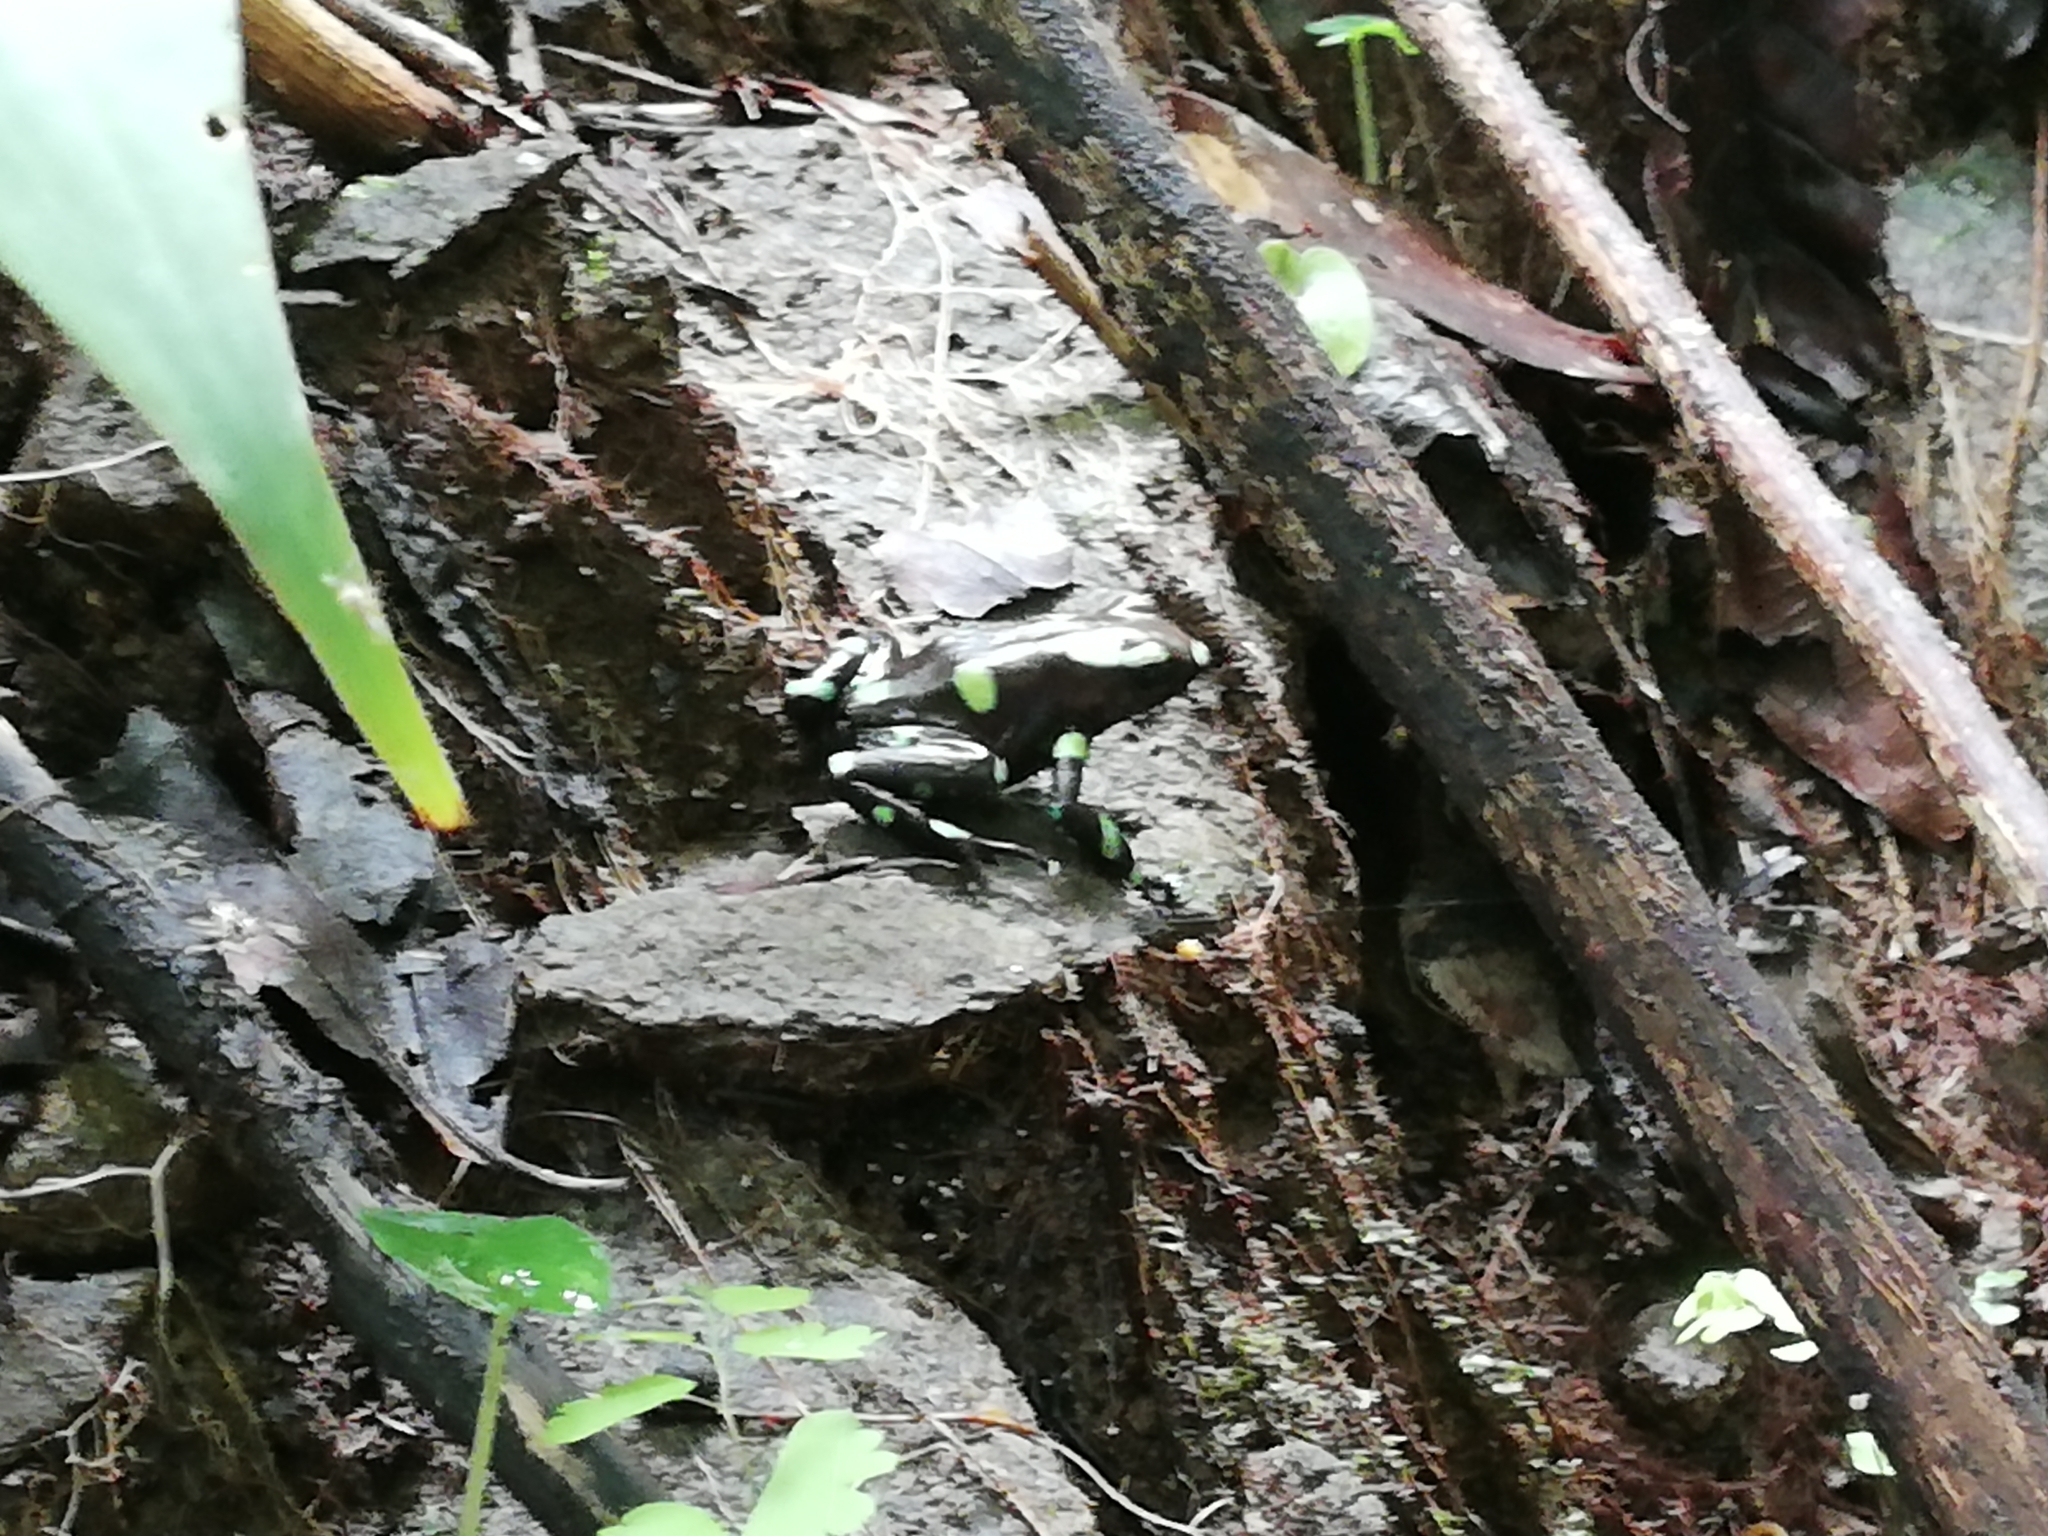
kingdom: Animalia
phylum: Chordata
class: Amphibia
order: Anura
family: Dendrobatidae
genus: Dendrobates
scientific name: Dendrobates auratus
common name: Green and black poison dart frog
